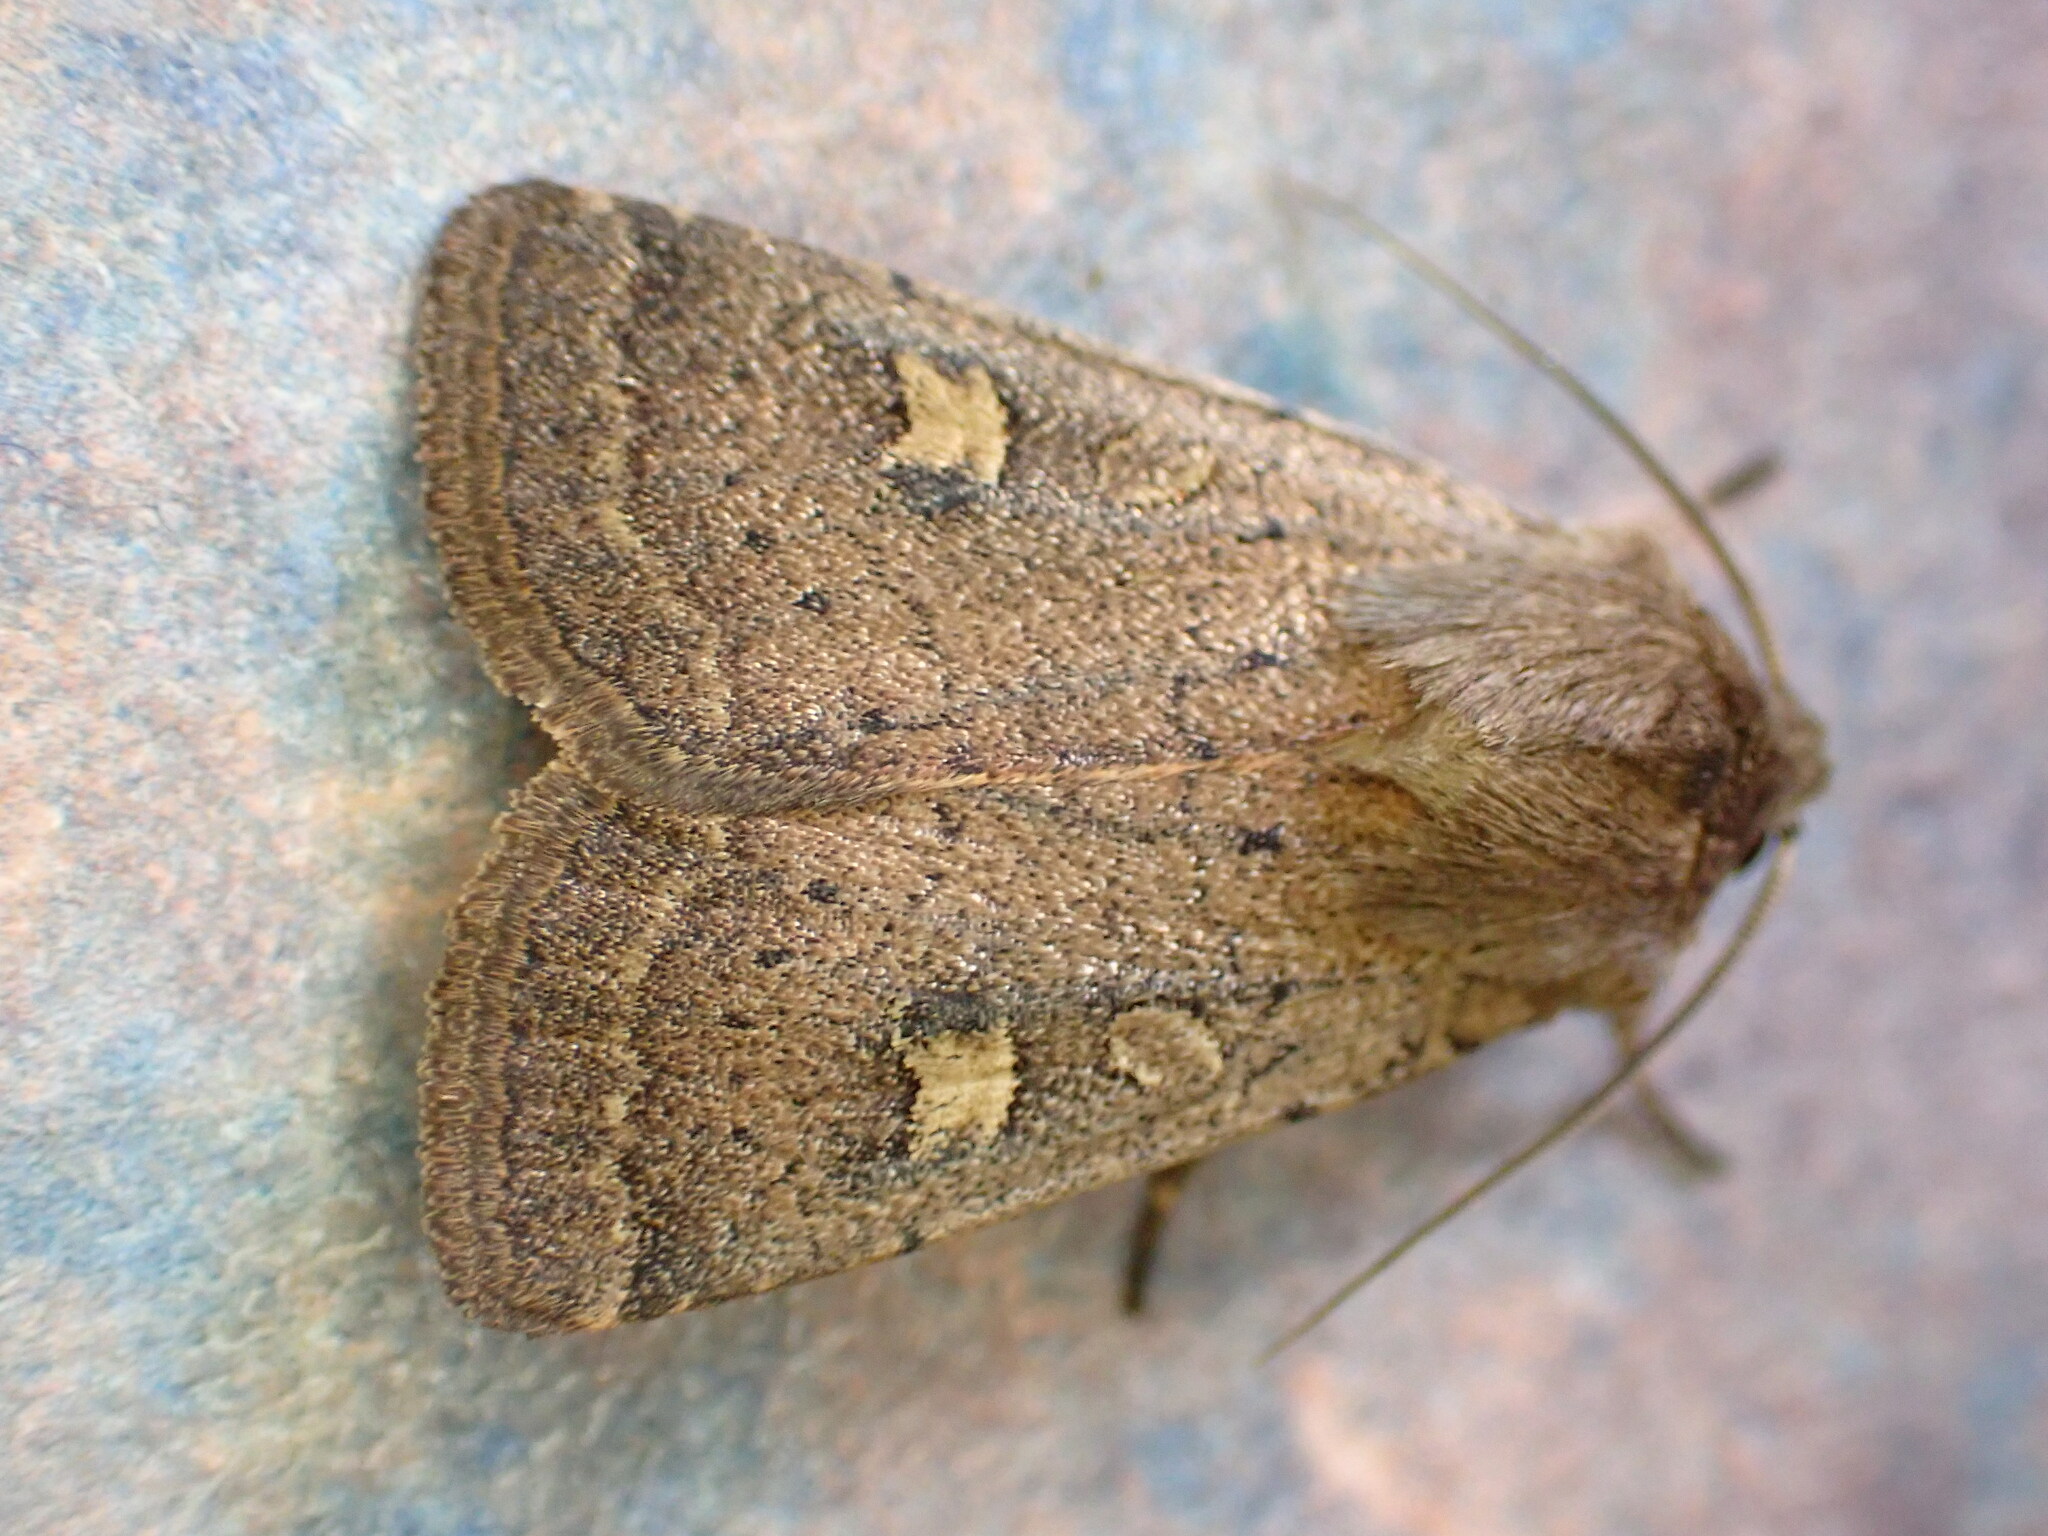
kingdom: Animalia
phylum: Arthropoda
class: Insecta
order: Lepidoptera
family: Noctuidae
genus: Xestia
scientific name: Xestia xanthographa
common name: Square-spot rustic
